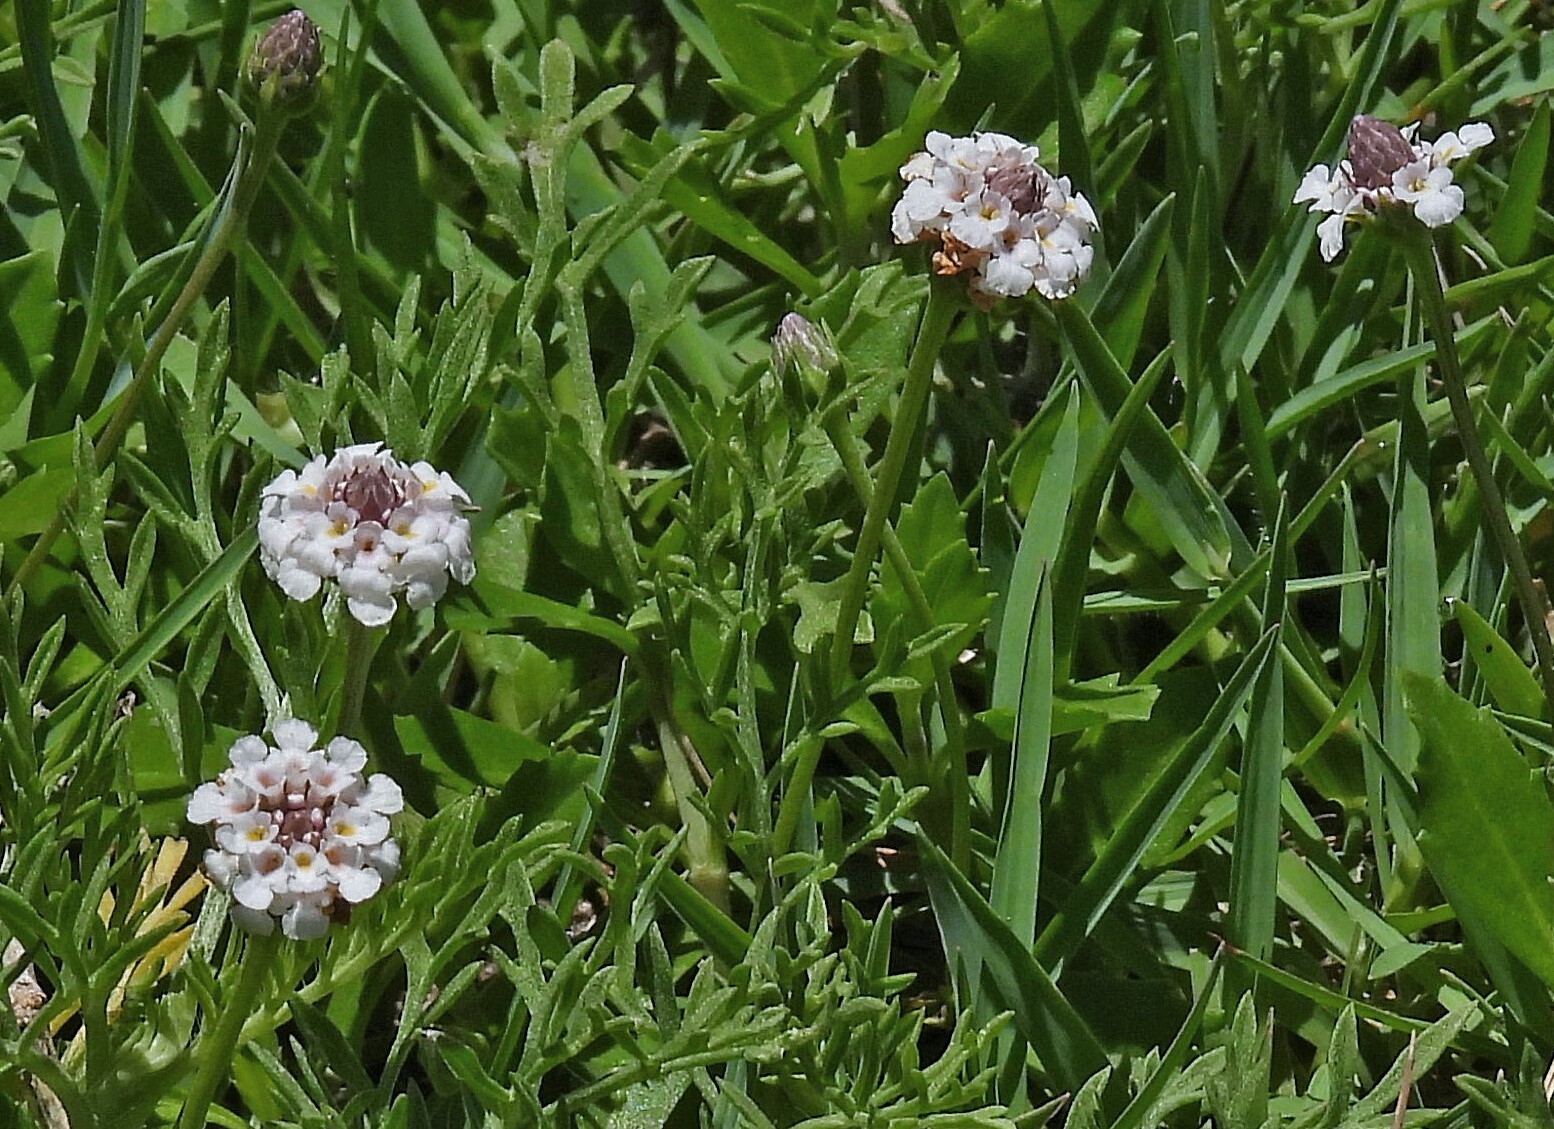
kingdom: Plantae
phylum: Tracheophyta
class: Magnoliopsida
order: Lamiales
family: Verbenaceae
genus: Phyla
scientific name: Phyla nodiflora
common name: Frogfruit
